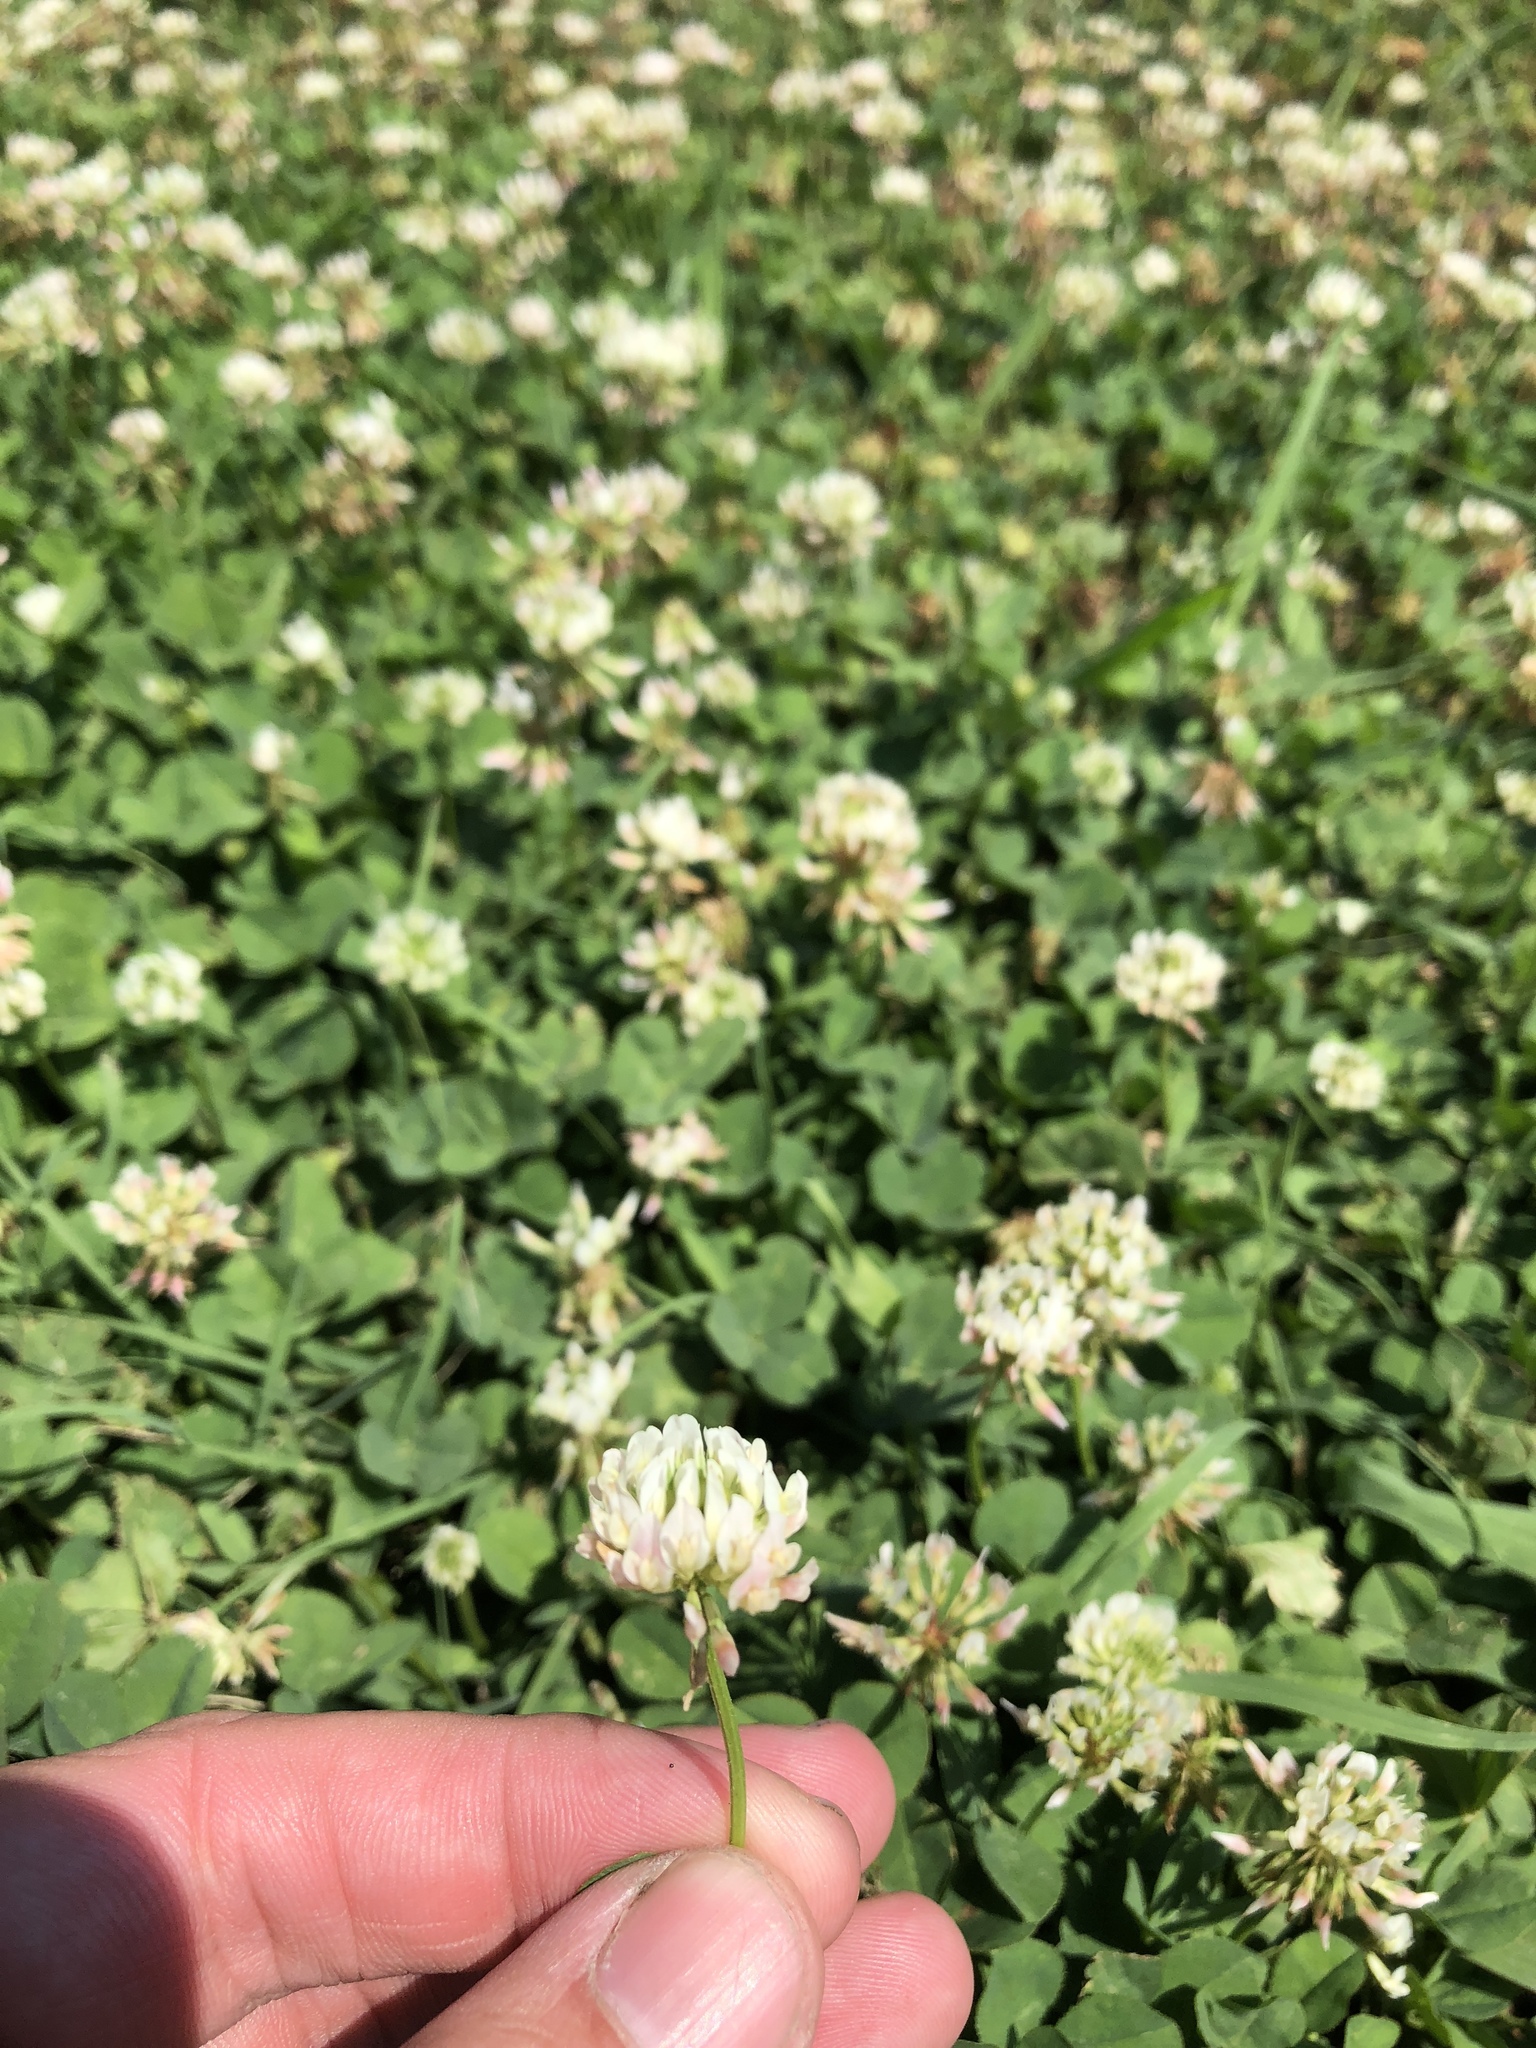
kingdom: Plantae
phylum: Tracheophyta
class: Magnoliopsida
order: Fabales
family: Fabaceae
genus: Trifolium
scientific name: Trifolium repens
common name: White clover
